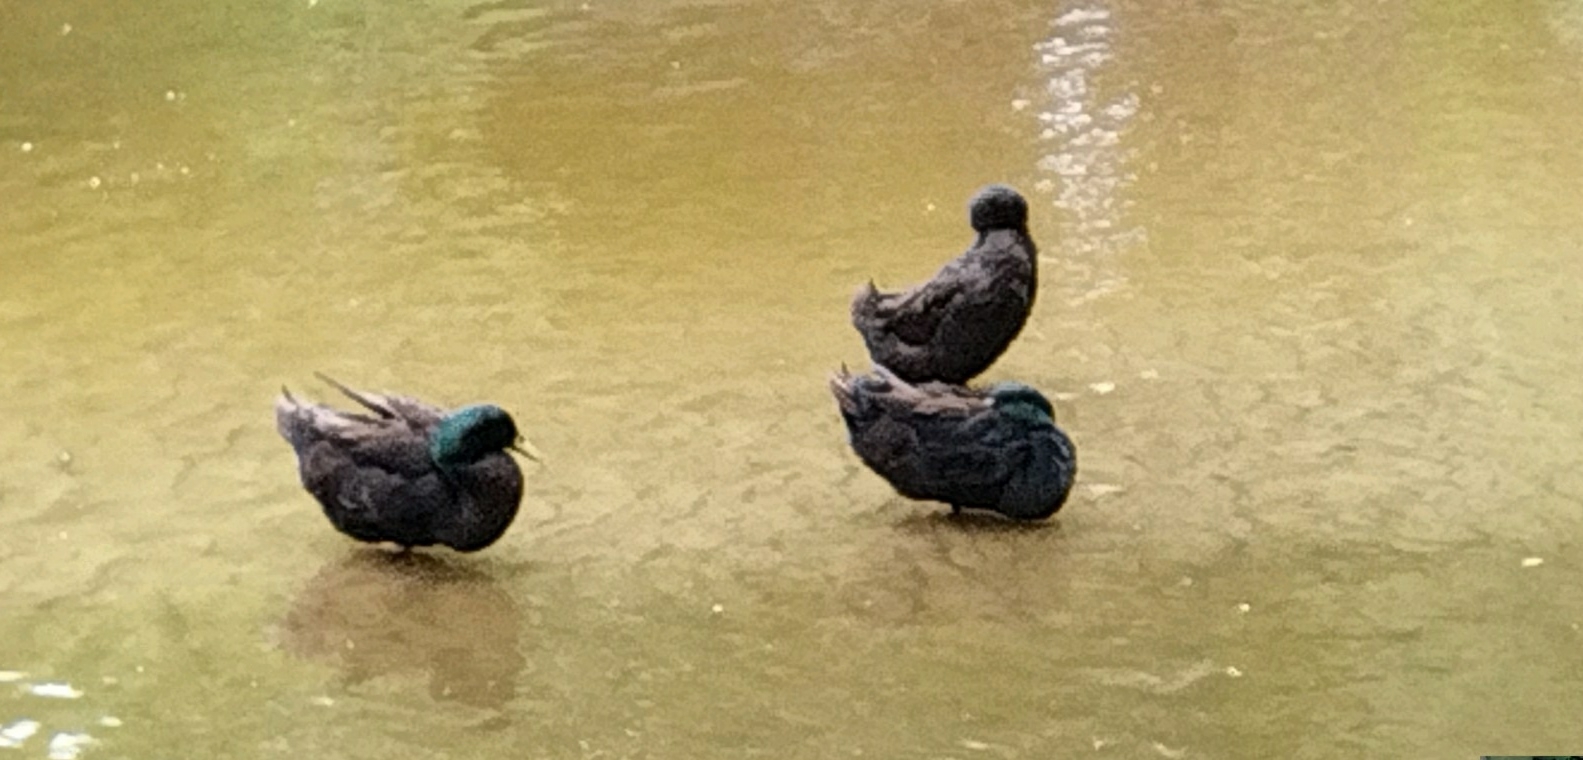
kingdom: Animalia
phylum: Chordata
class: Aves
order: Anseriformes
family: Anatidae
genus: Anas
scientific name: Anas platyrhynchos
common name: Mallard
